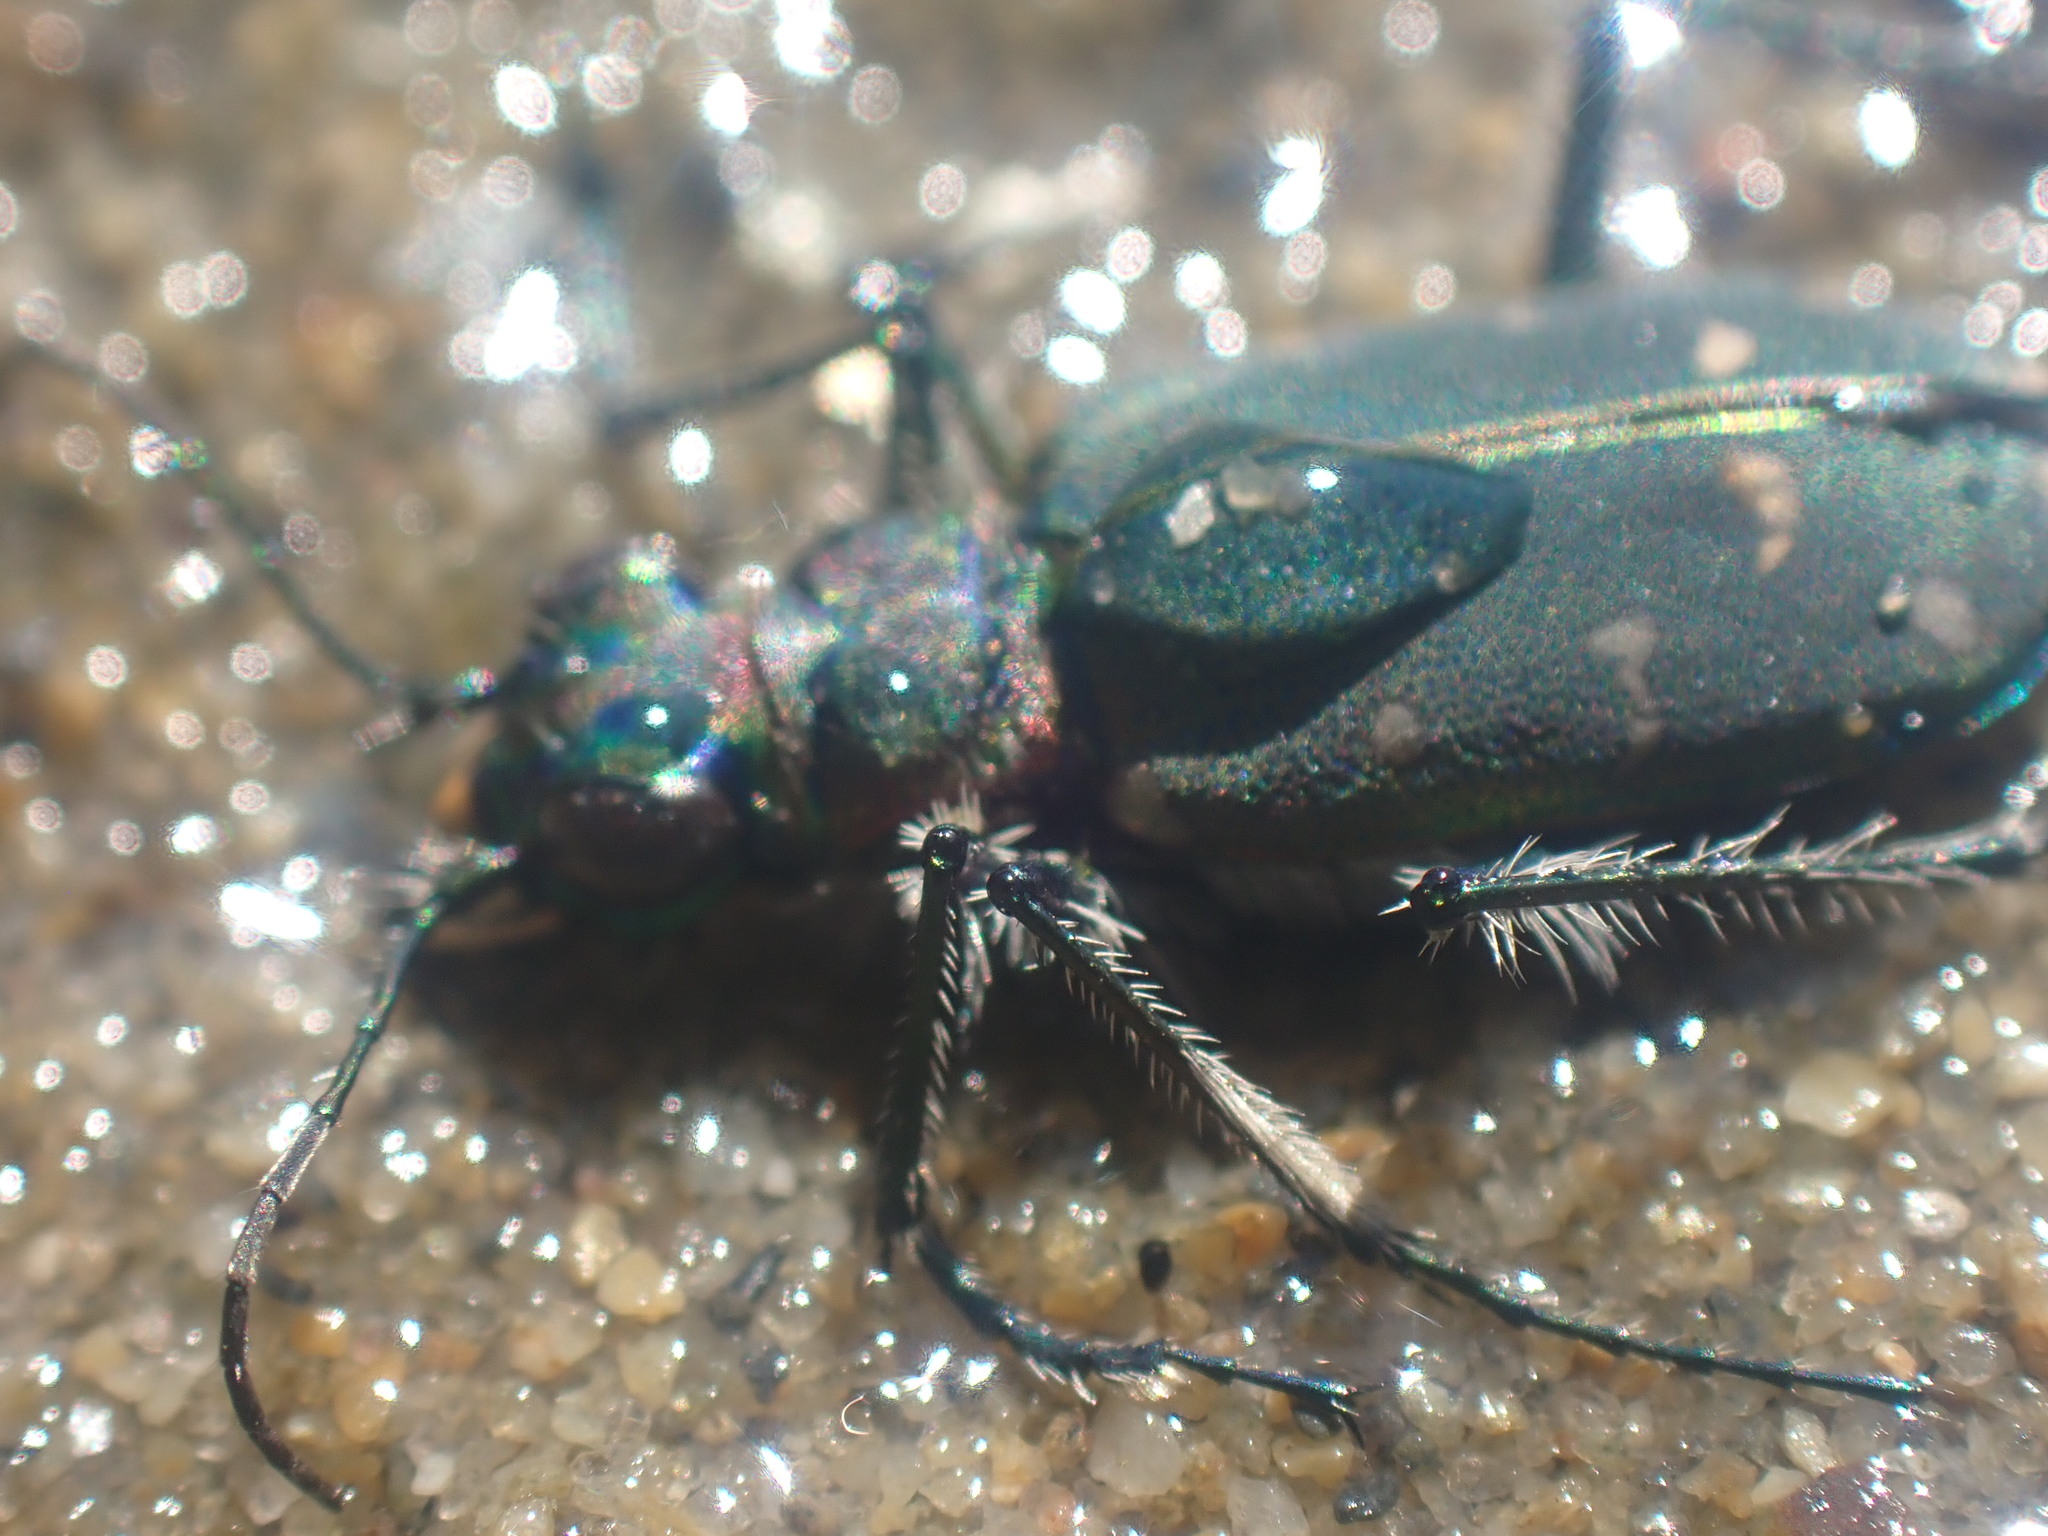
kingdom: Animalia
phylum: Arthropoda
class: Insecta
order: Coleoptera
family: Carabidae
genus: Cicindela
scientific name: Cicindela oregona
